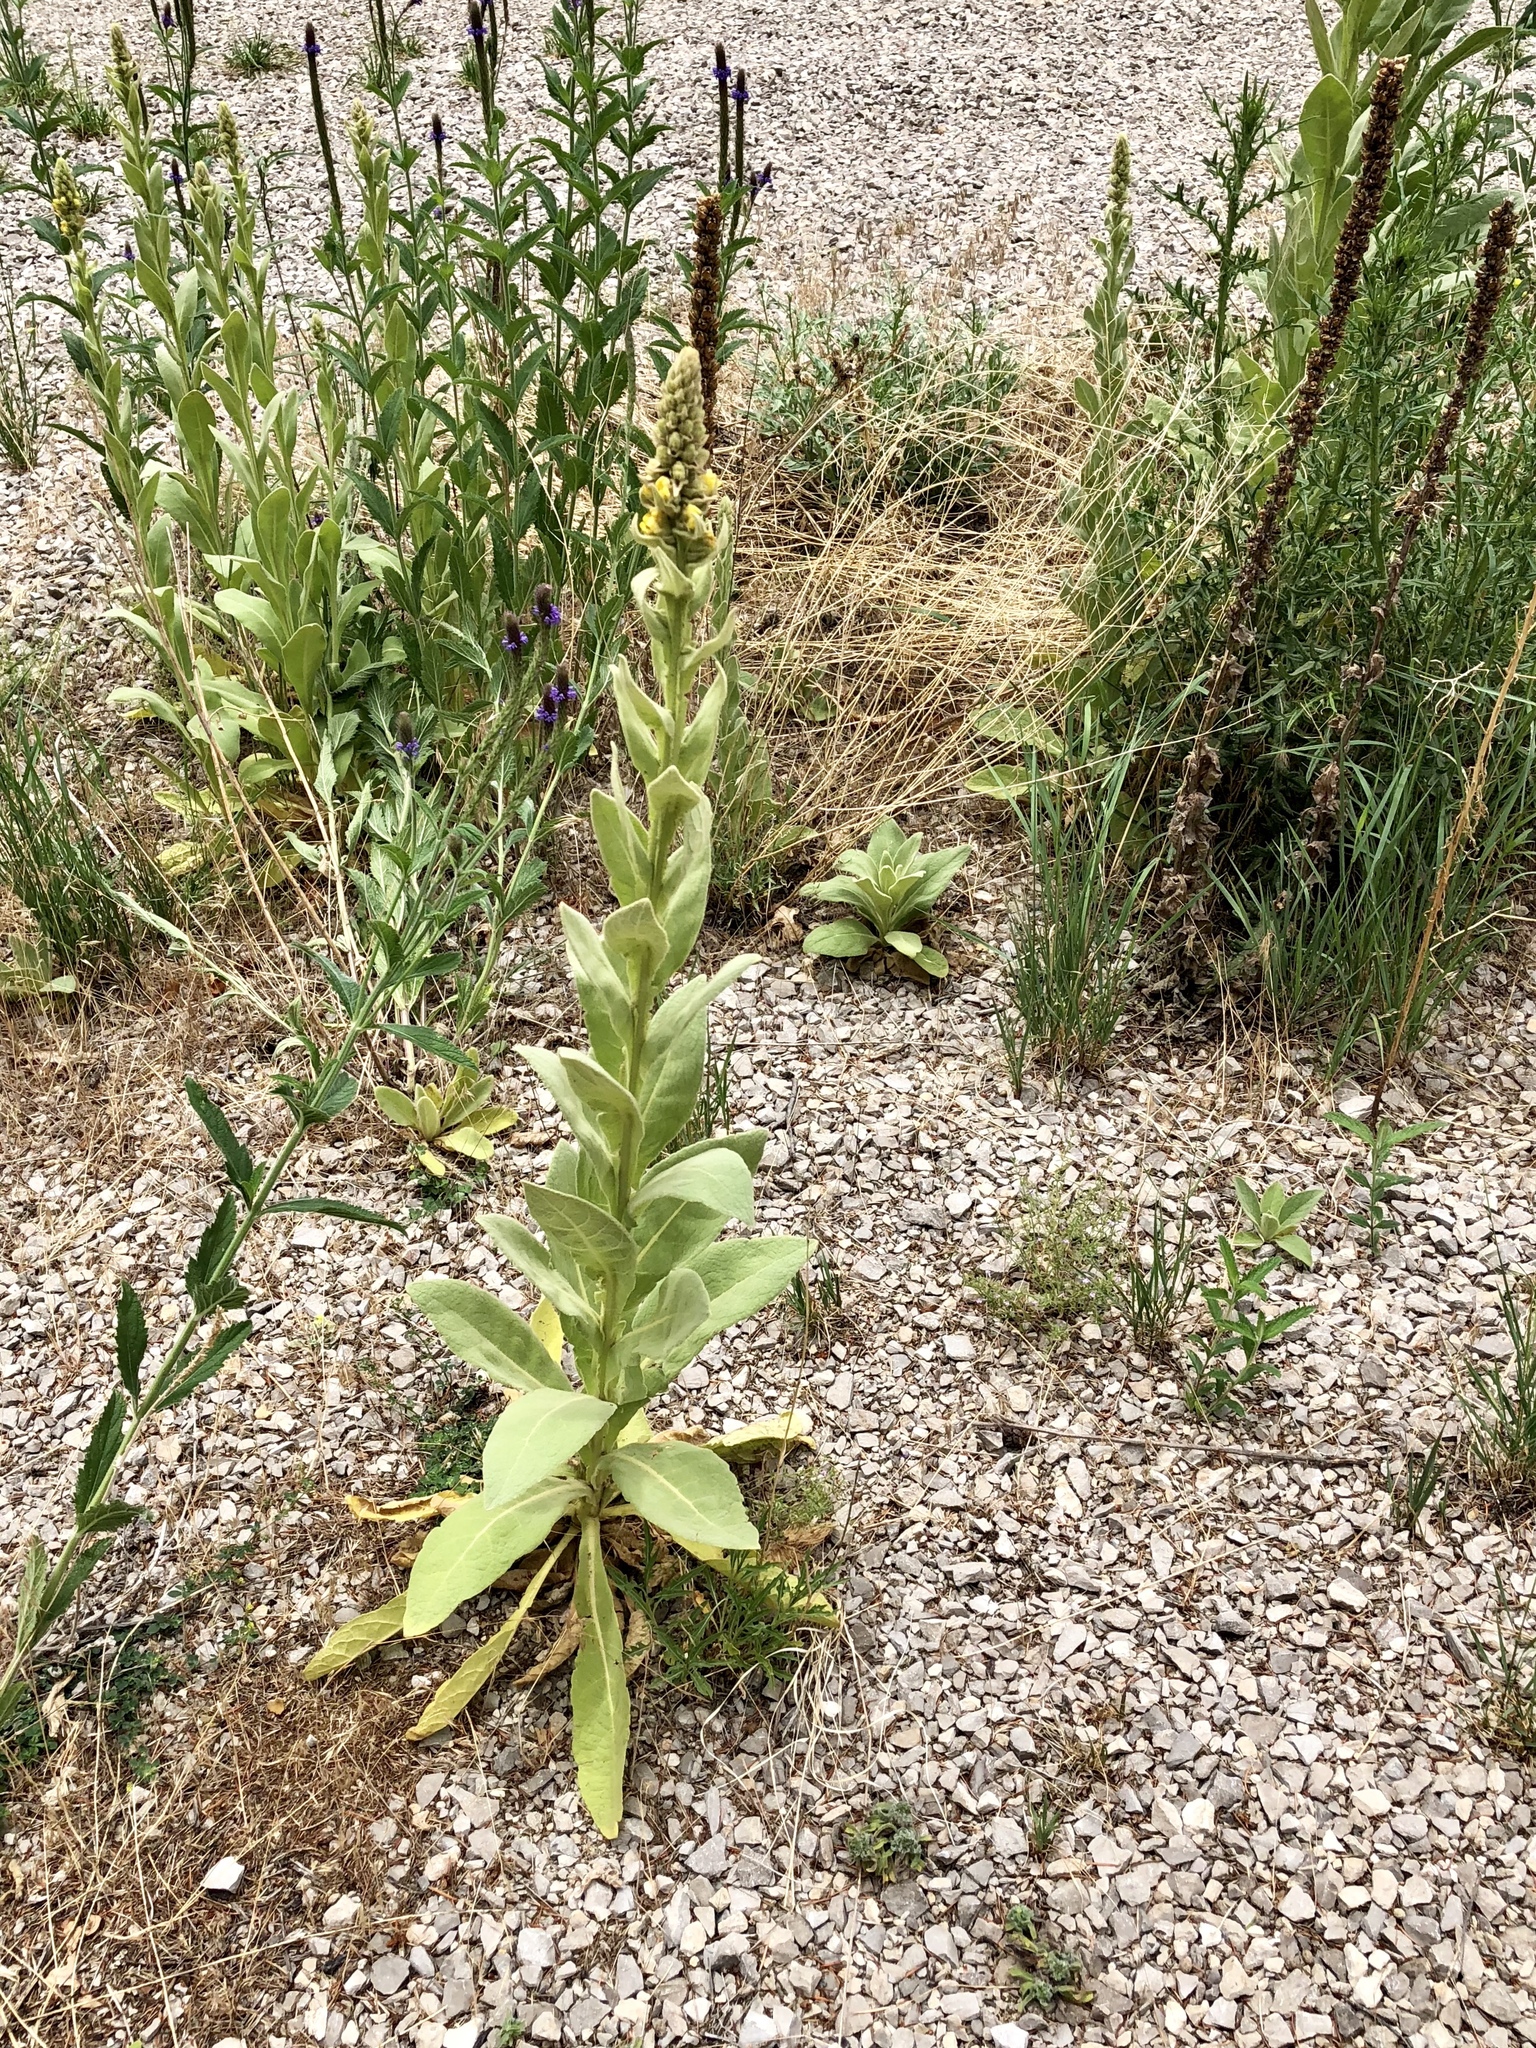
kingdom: Plantae
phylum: Tracheophyta
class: Magnoliopsida
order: Lamiales
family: Scrophulariaceae
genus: Verbascum
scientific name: Verbascum thapsus
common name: Common mullein
